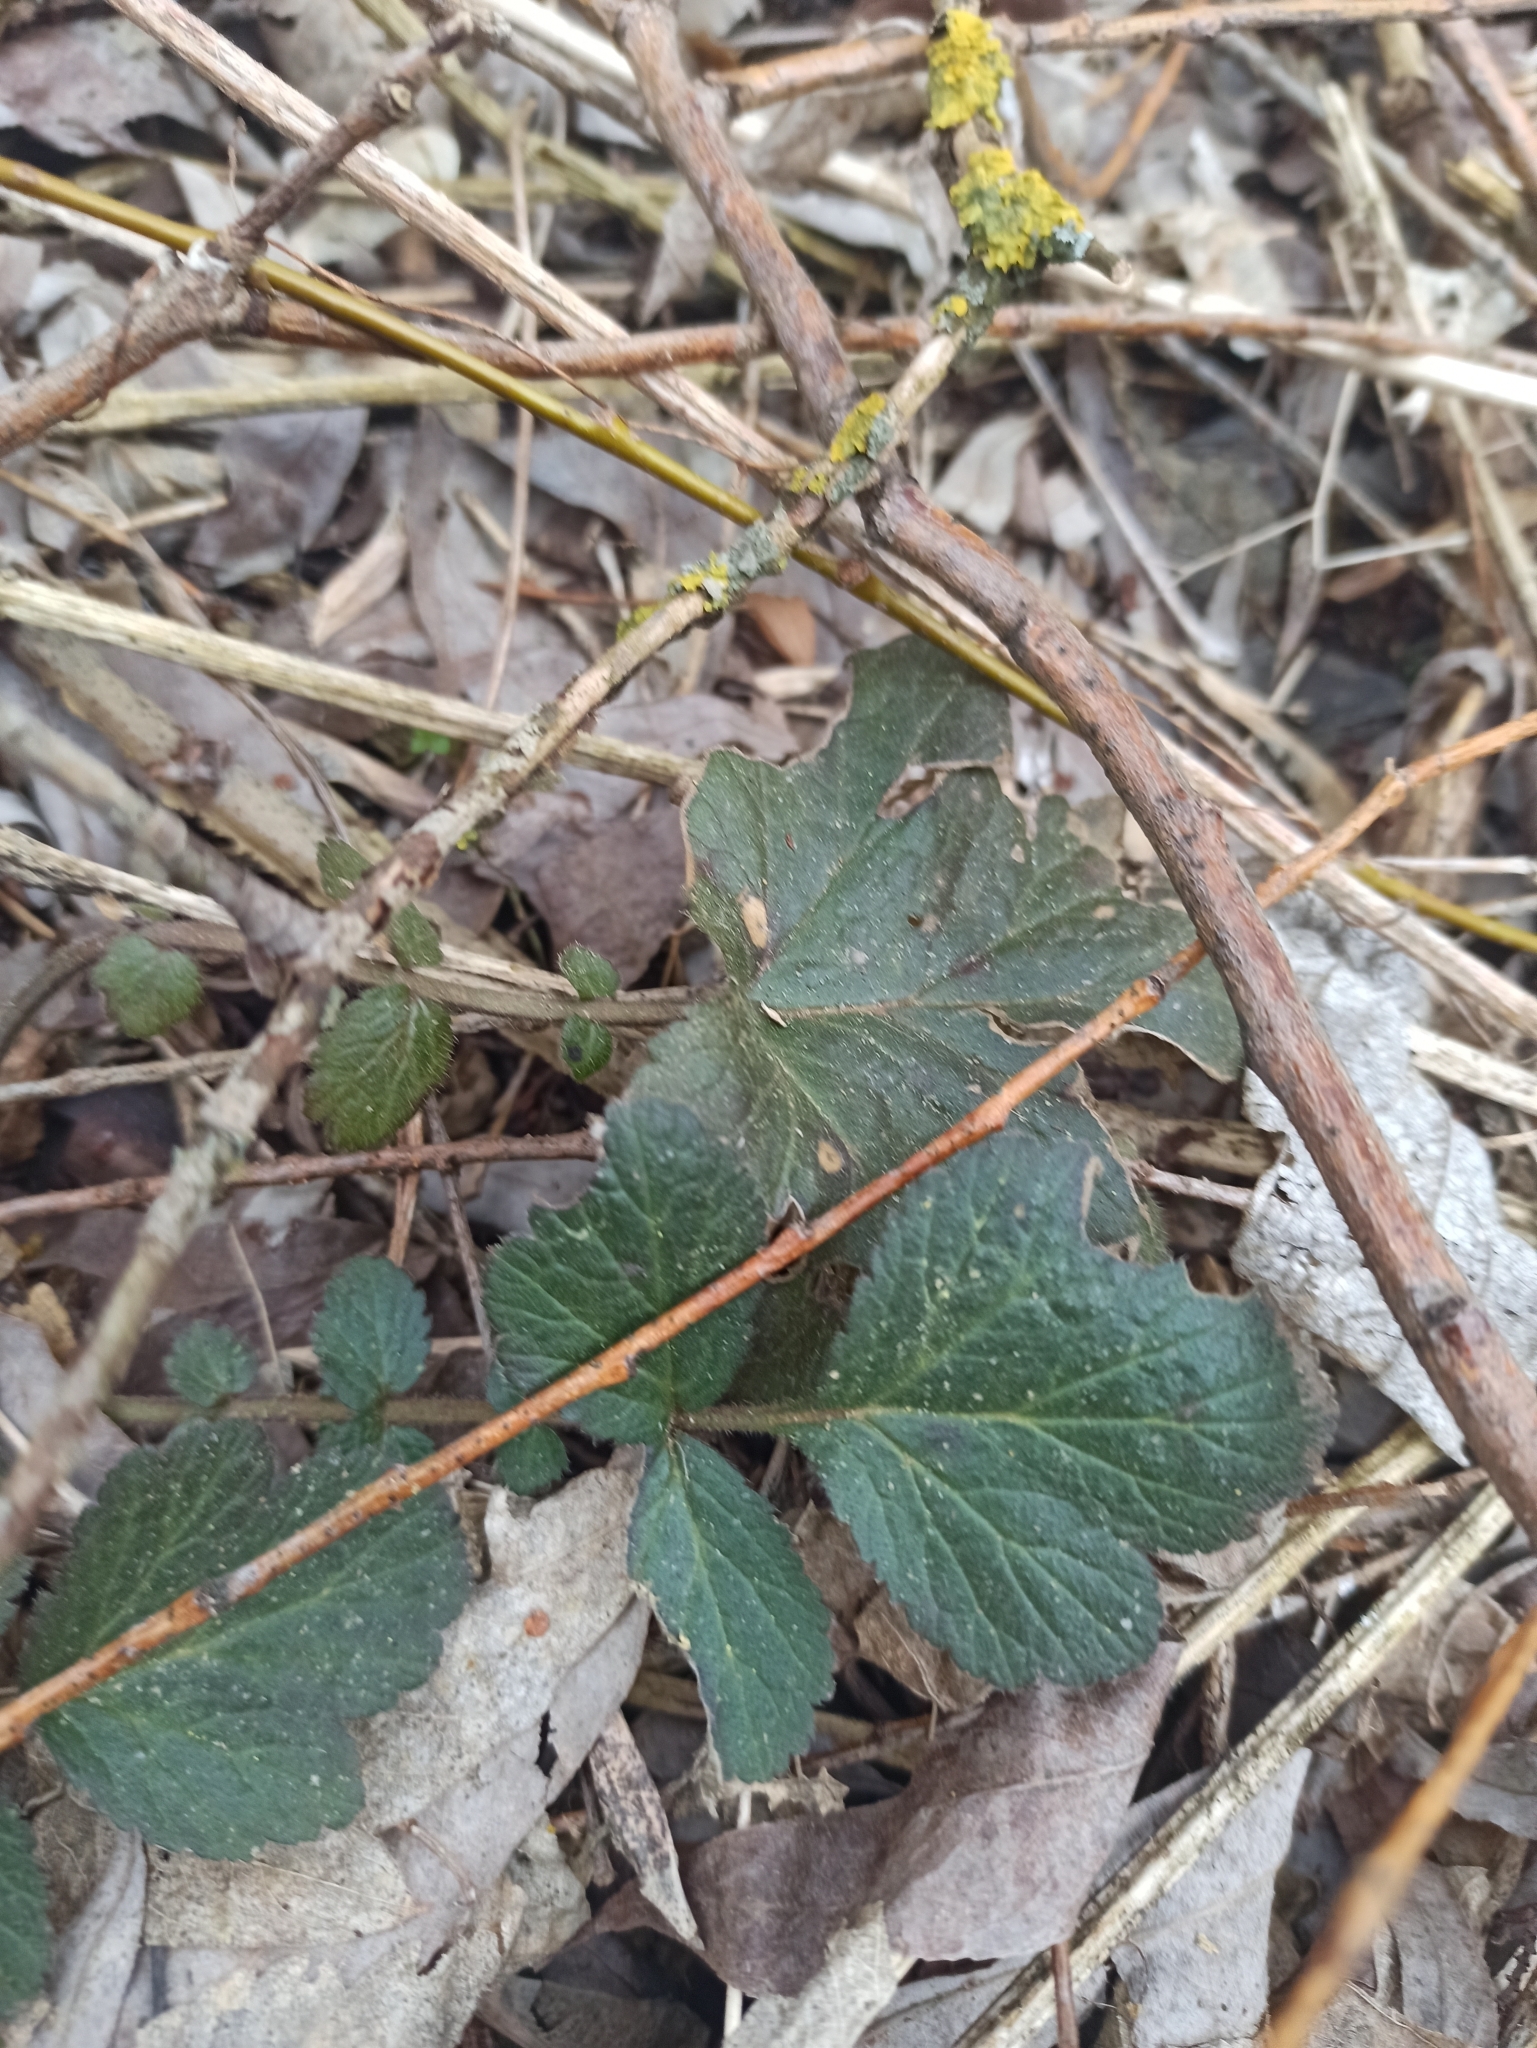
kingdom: Plantae
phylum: Tracheophyta
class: Magnoliopsida
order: Rosales
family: Rosaceae
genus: Geum
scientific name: Geum urbanum
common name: Wood avens
